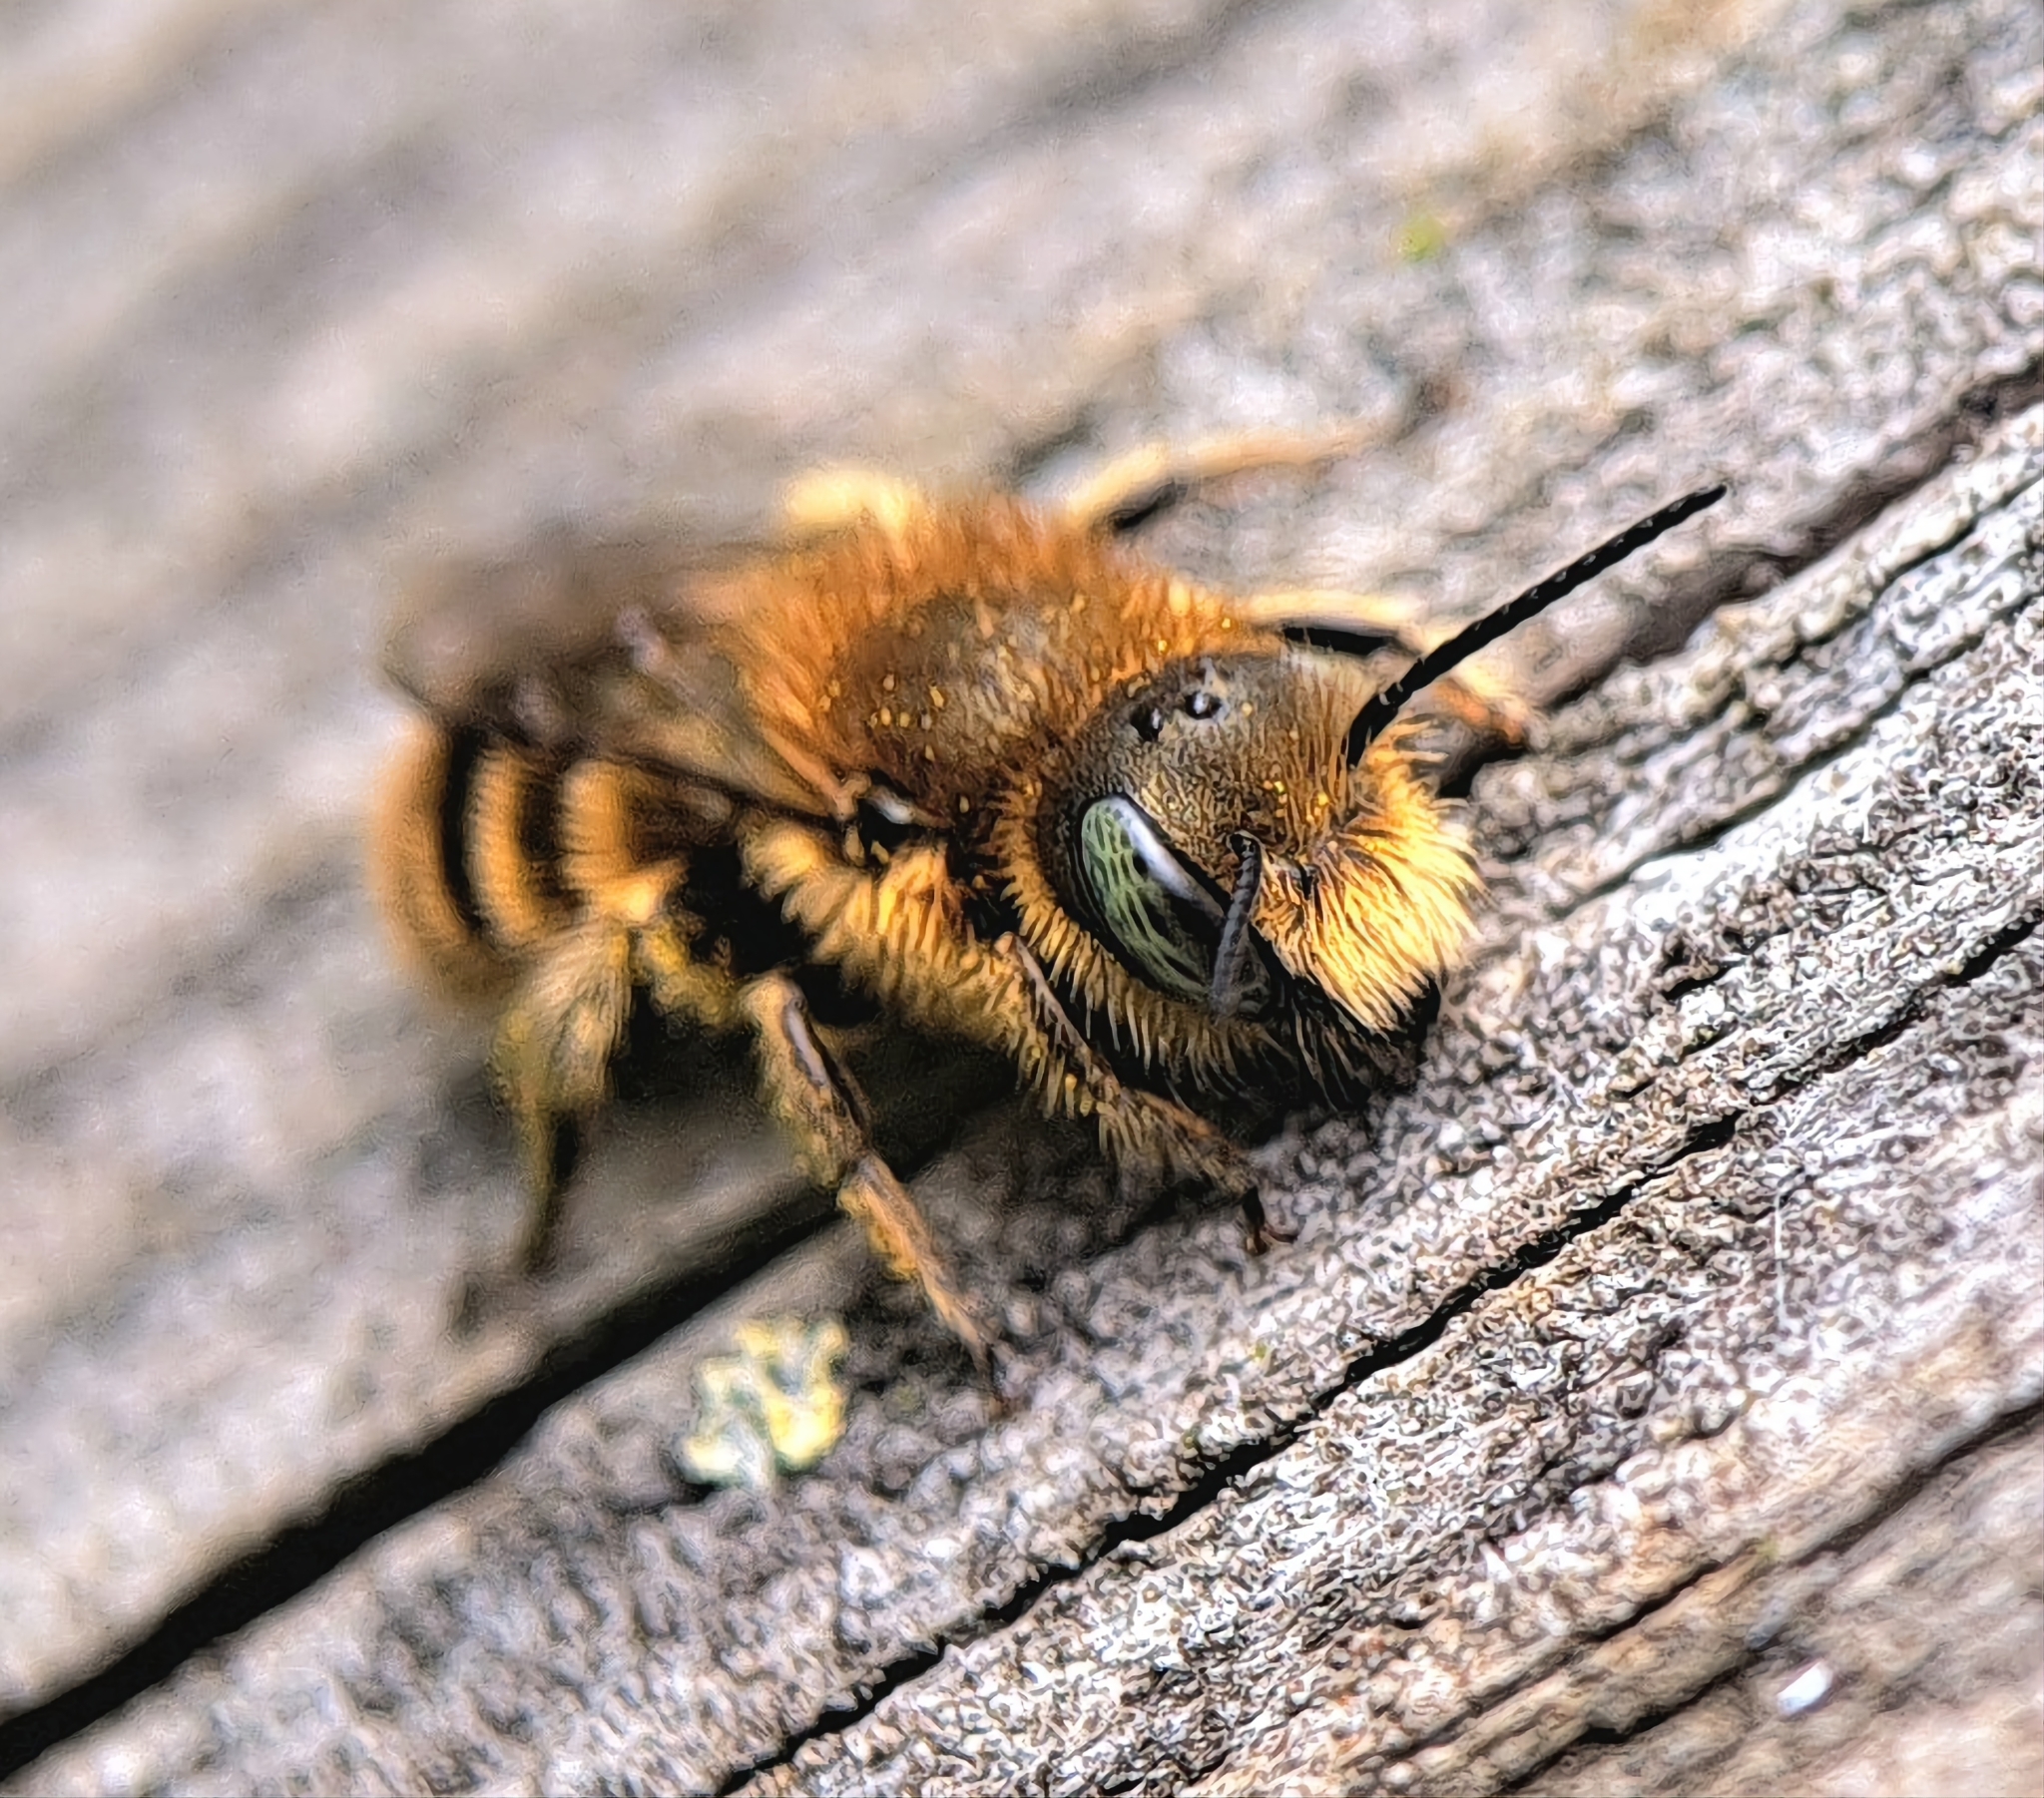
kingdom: Animalia
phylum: Arthropoda
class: Insecta
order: Hymenoptera
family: Megachilidae
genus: Osmia
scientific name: Osmia caerulescens
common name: Blue mason bee
